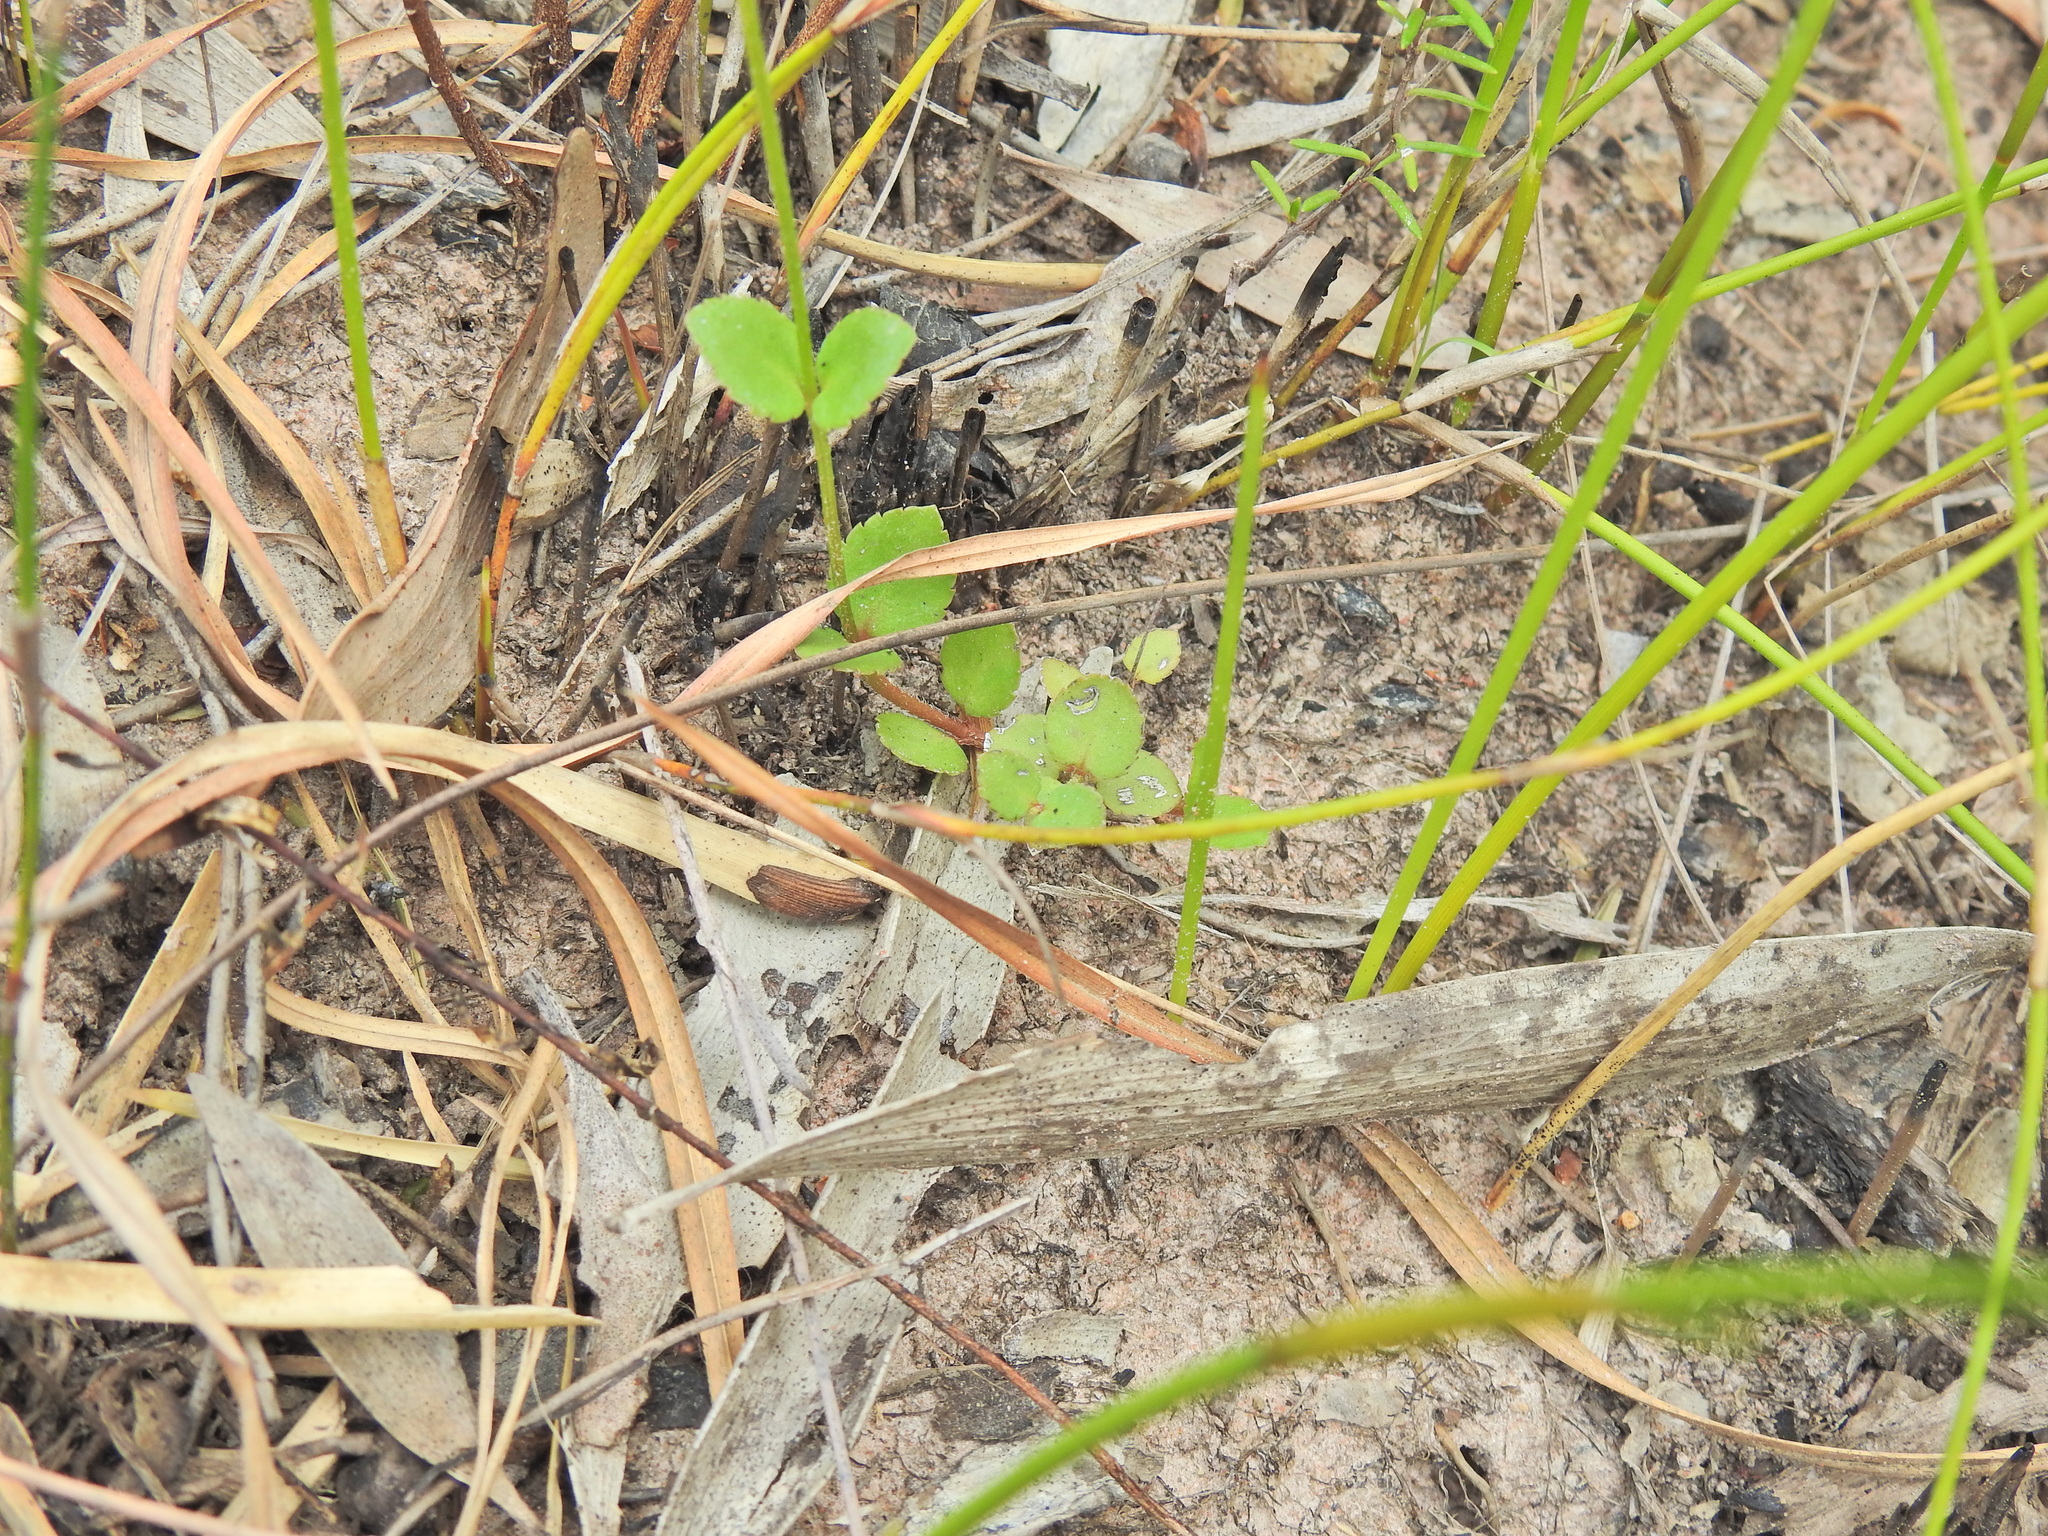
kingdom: Plantae
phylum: Tracheophyta
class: Magnoliopsida
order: Saxifragales
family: Haloragaceae
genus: Gonocarpus
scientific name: Gonocarpus micranthus
